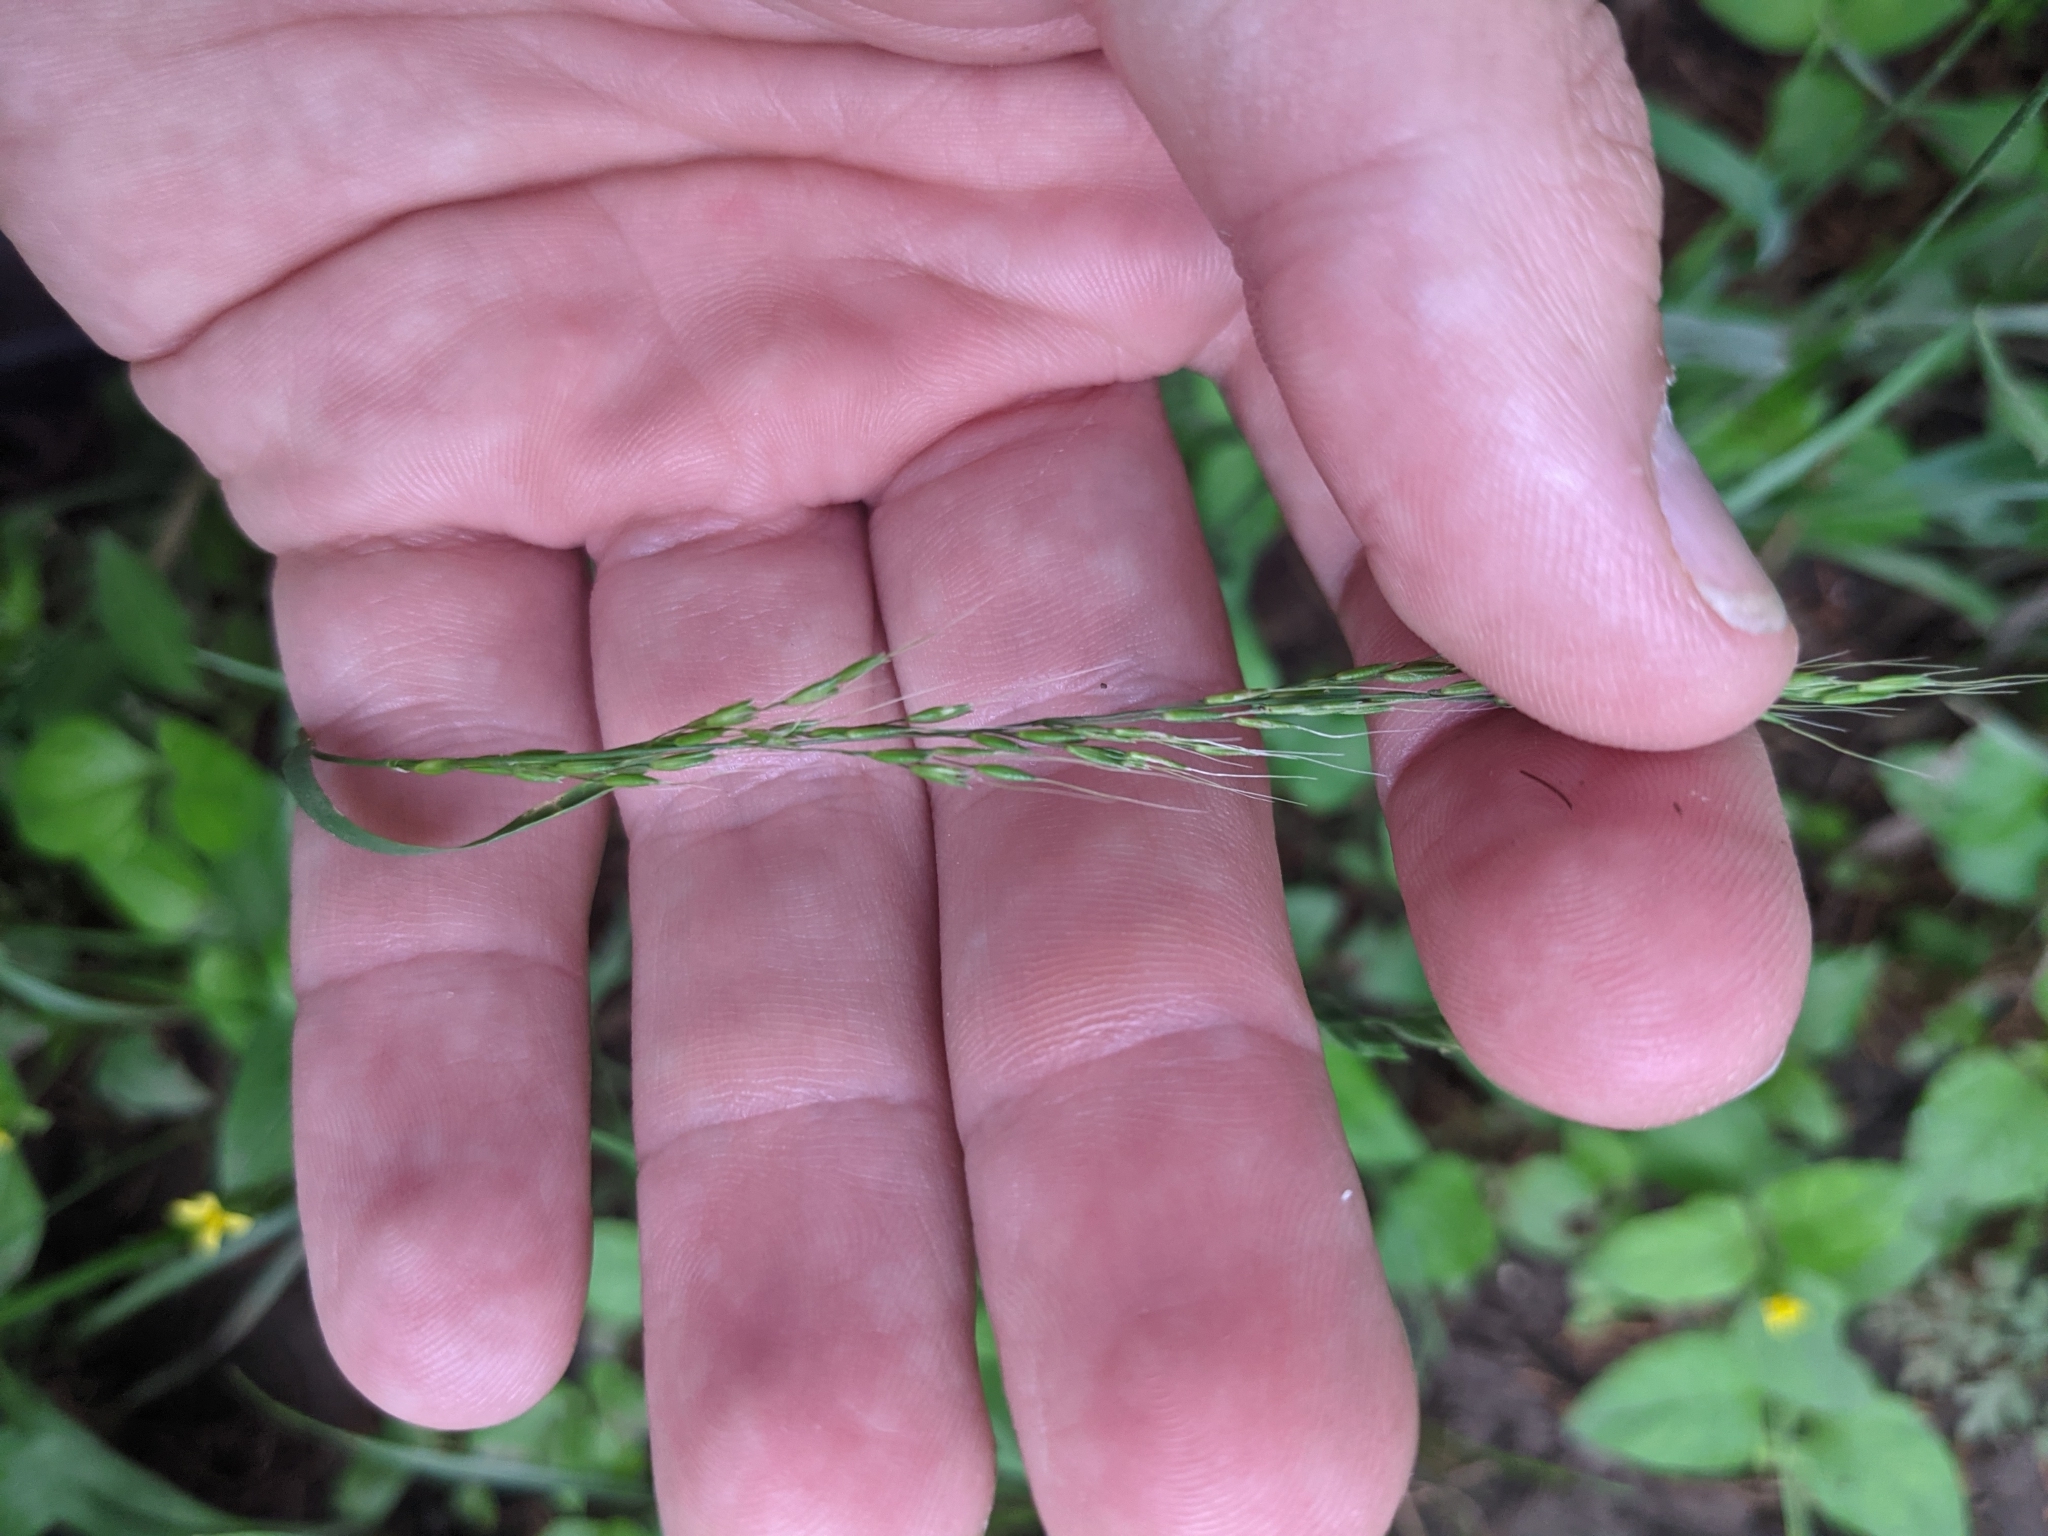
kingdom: Plantae
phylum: Tracheophyta
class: Liliopsida
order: Poales
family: Poaceae
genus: Limnodea
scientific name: Limnodea arkansana
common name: Ozark-grass
